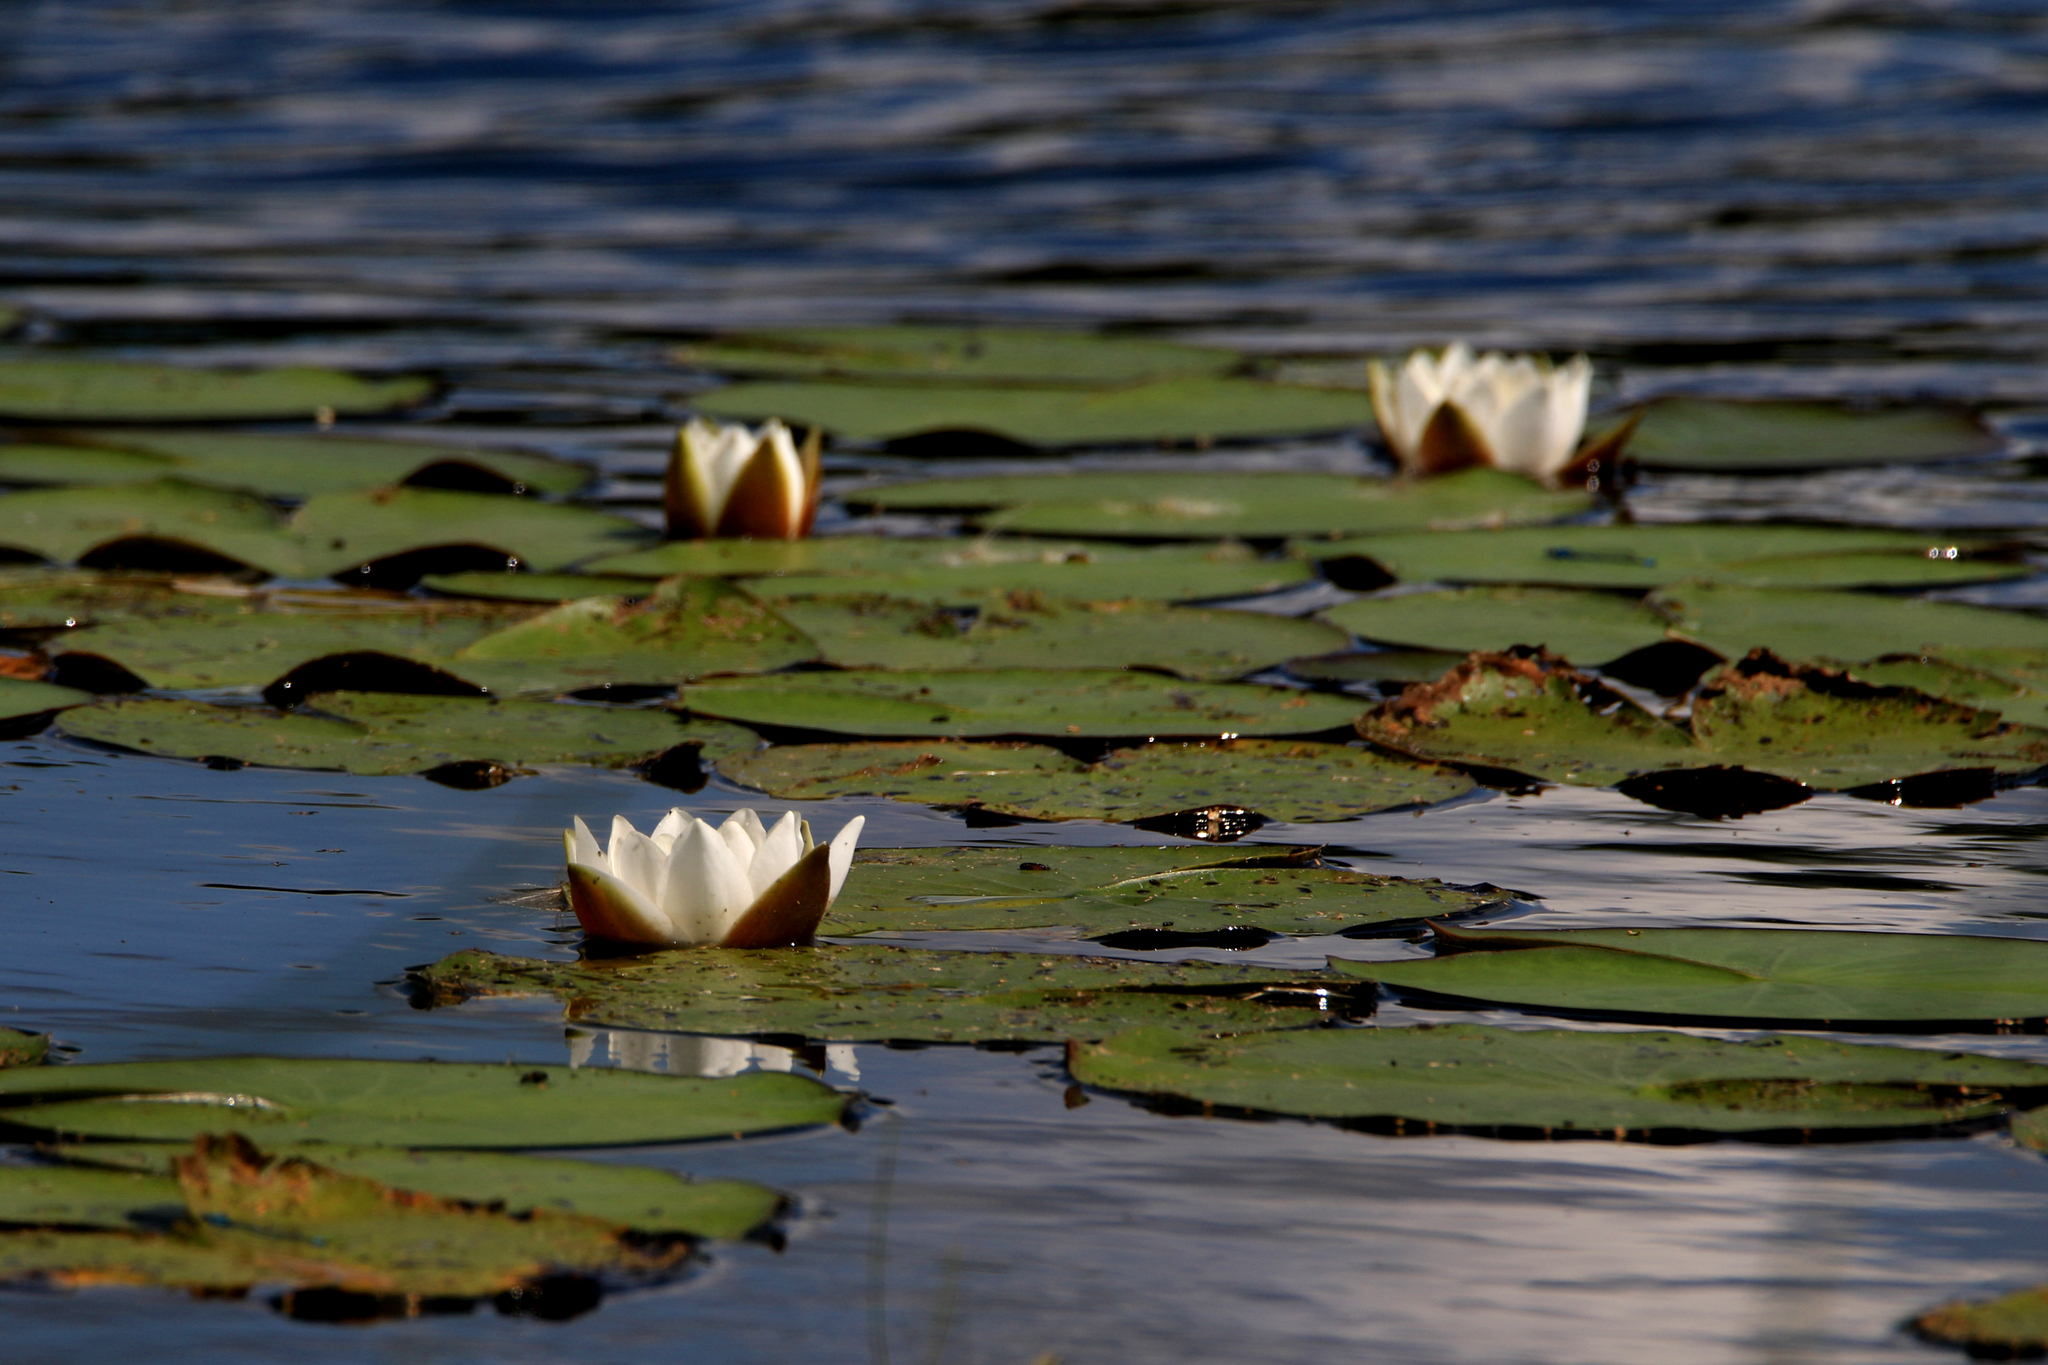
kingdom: Plantae
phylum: Tracheophyta
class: Magnoliopsida
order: Nymphaeales
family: Nymphaeaceae
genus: Nymphaea
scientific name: Nymphaea candida
